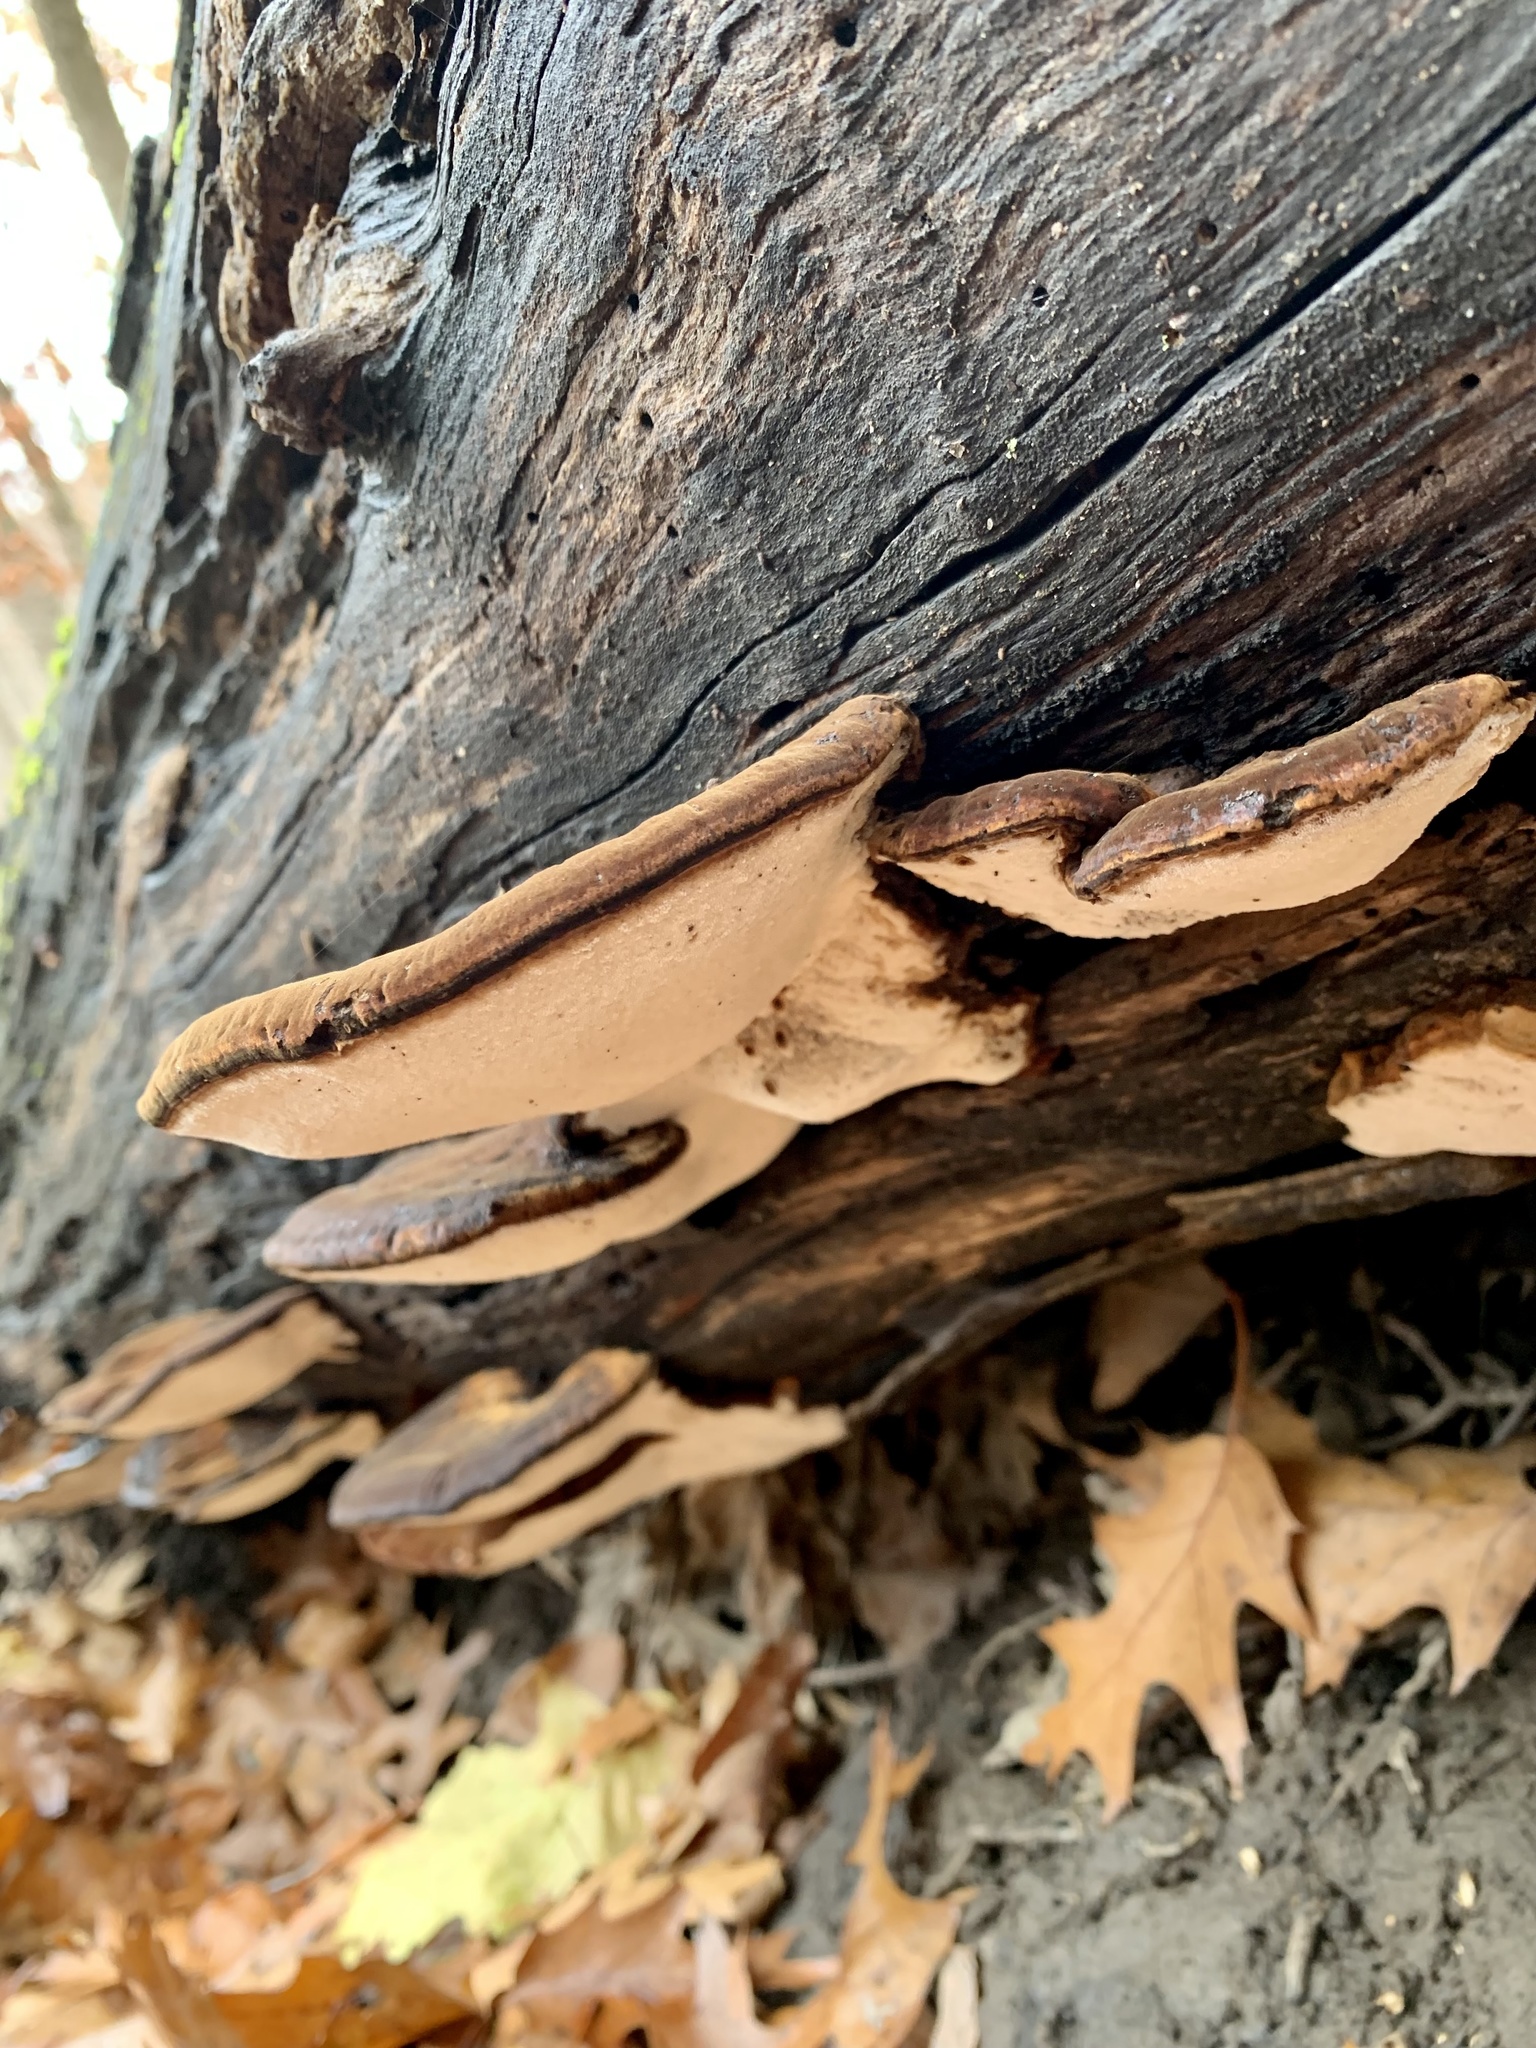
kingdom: Fungi
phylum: Basidiomycota
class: Agaricomycetes
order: Polyporales
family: Ischnodermataceae
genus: Ischnoderma
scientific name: Ischnoderma resinosum
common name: Resinous polypore
